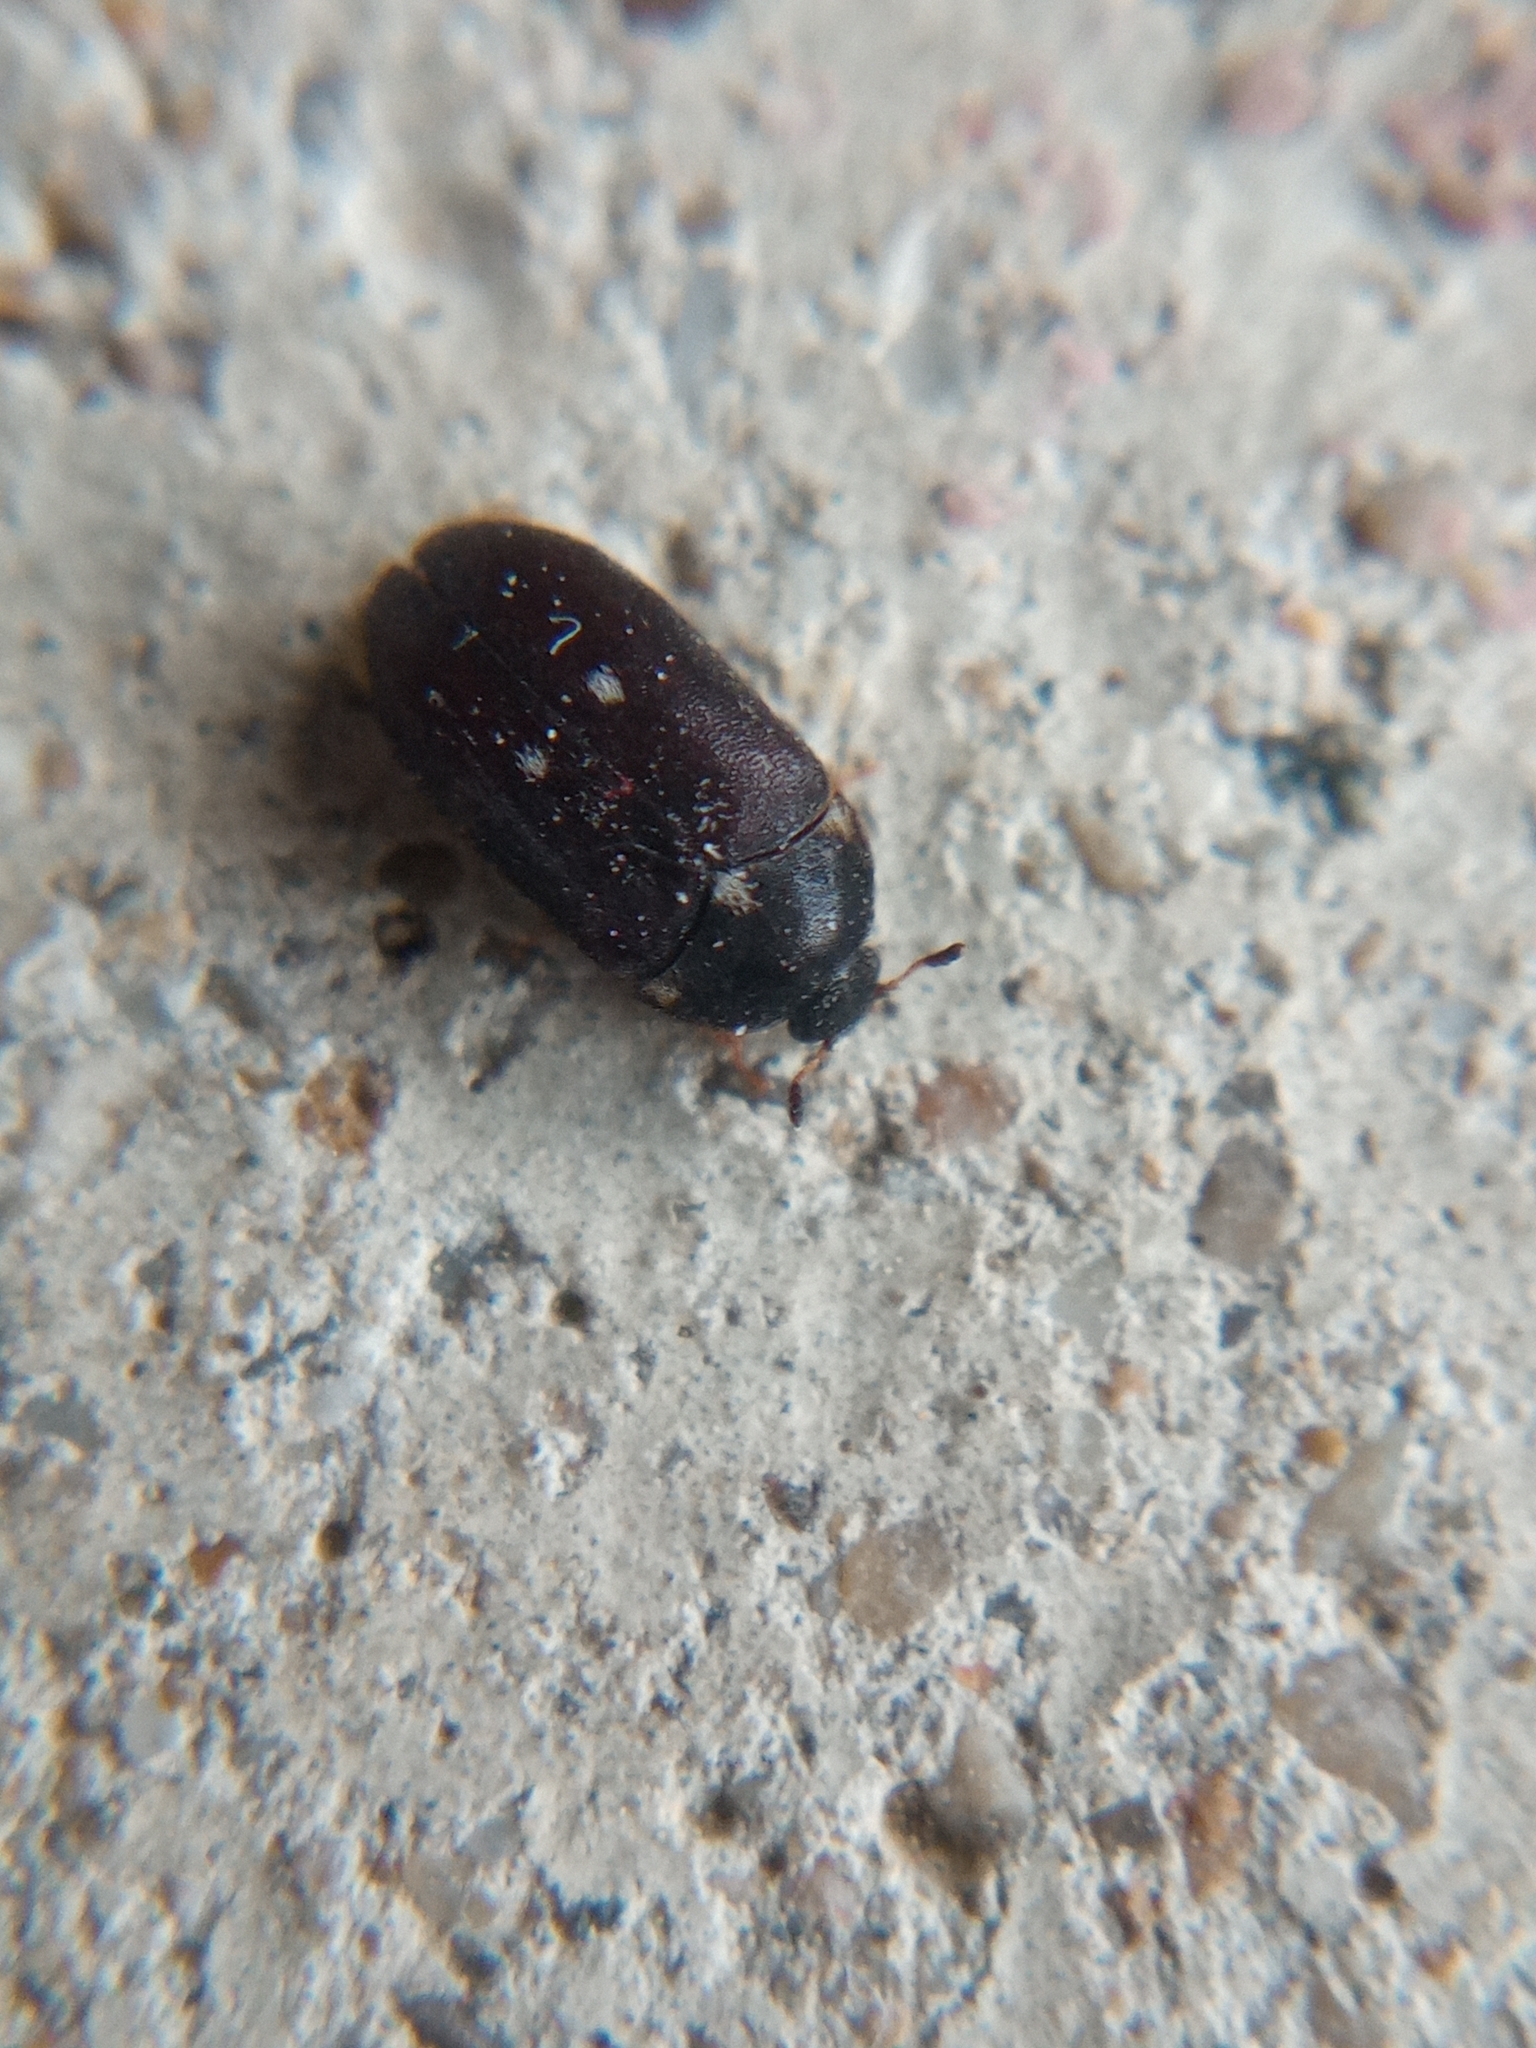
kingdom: Animalia
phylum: Arthropoda
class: Insecta
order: Coleoptera
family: Dermestidae
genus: Attagenus
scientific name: Attagenus pellio
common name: Two-spotted carpet beetle
